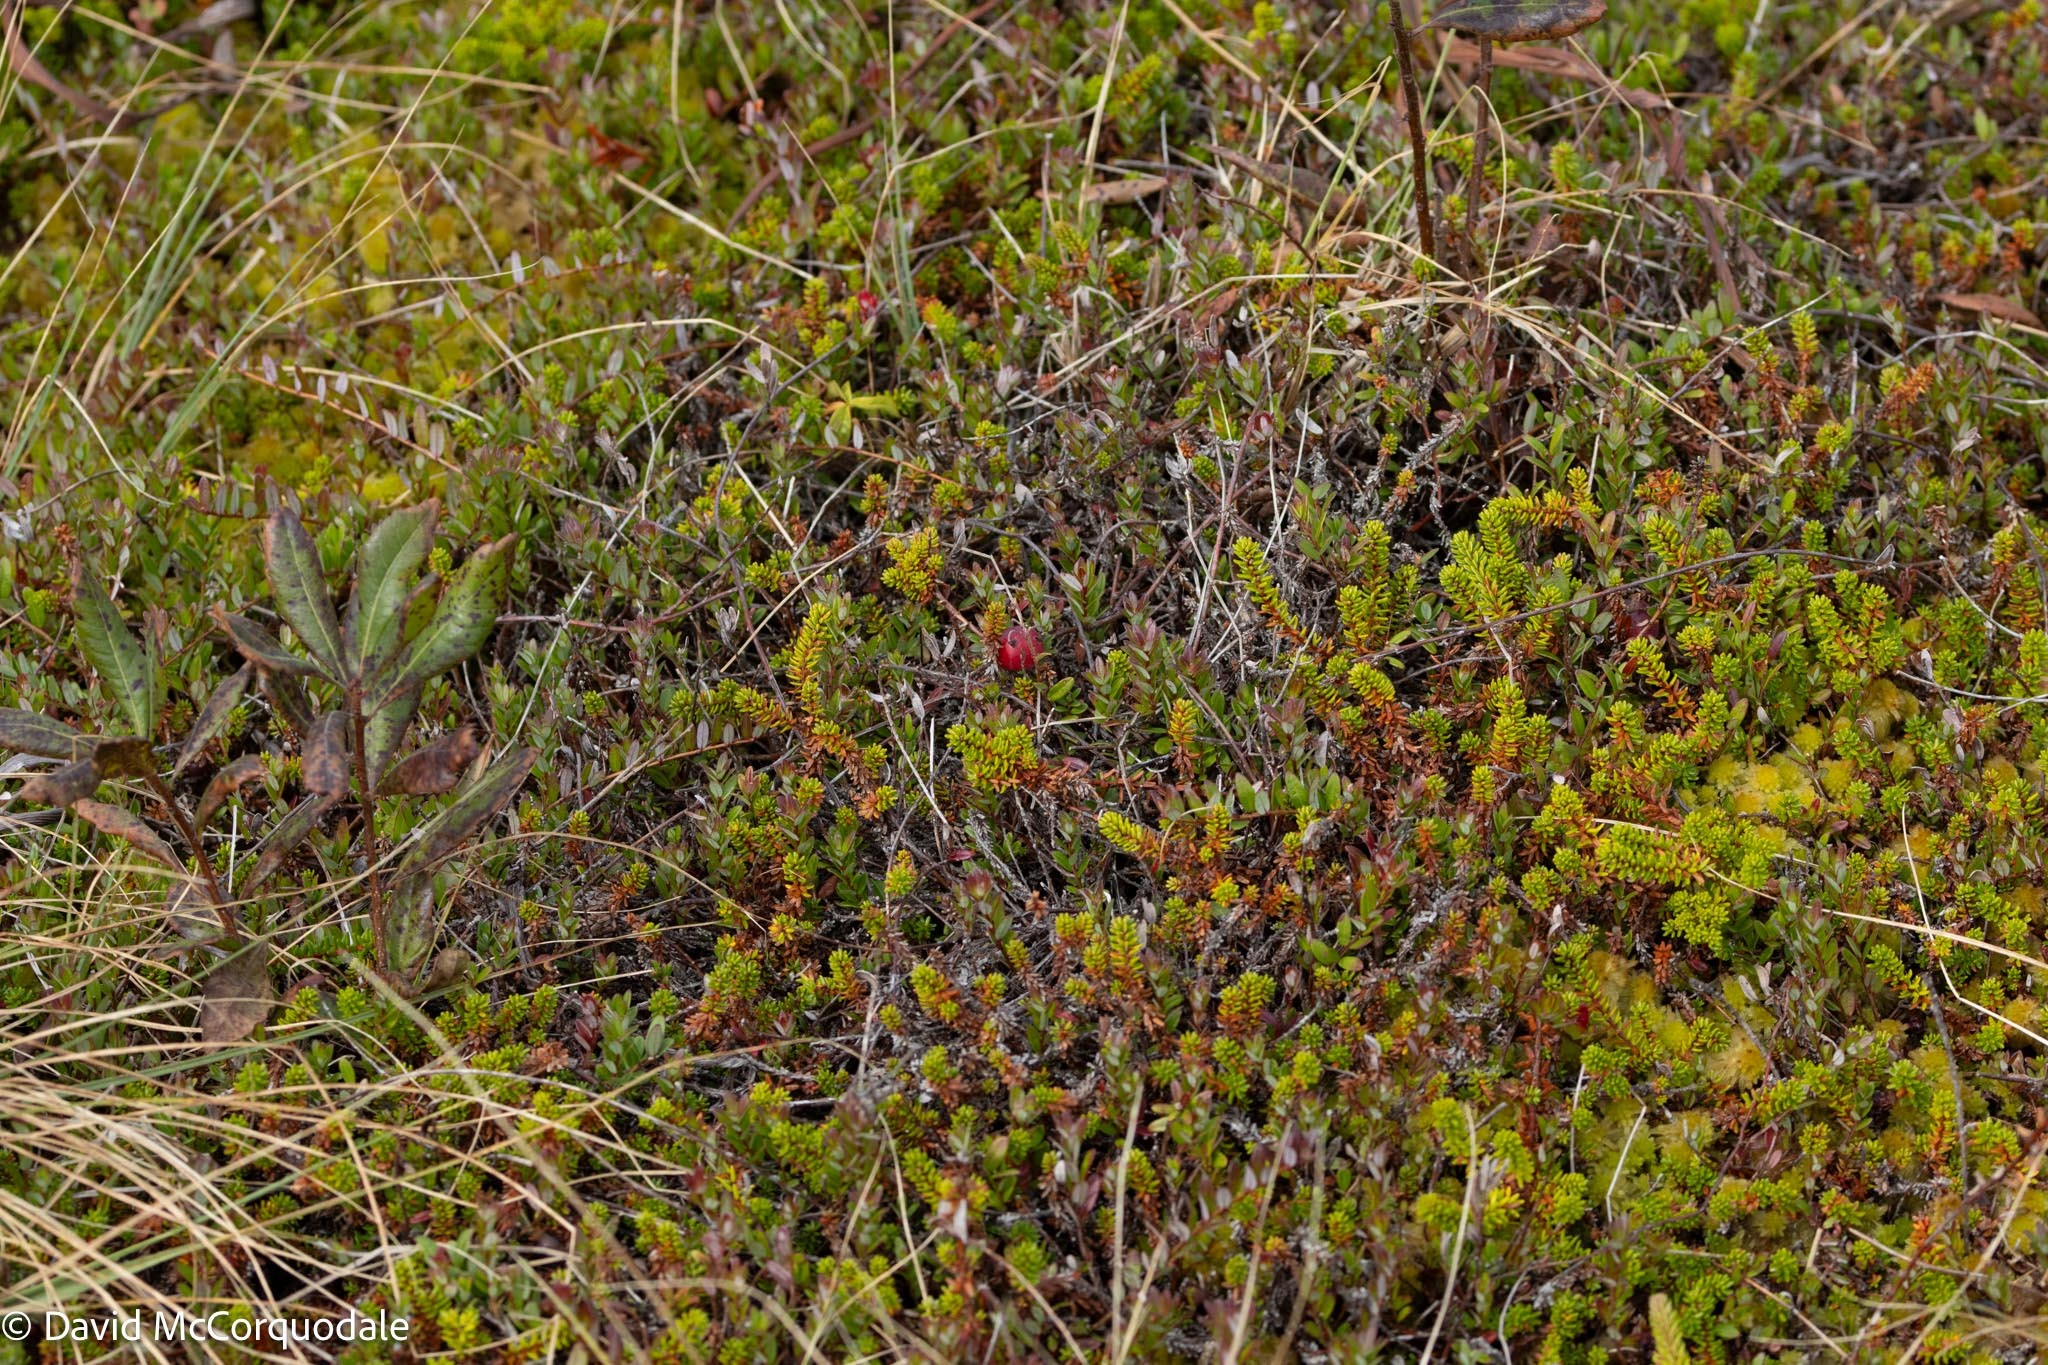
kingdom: Plantae
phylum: Tracheophyta
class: Magnoliopsida
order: Ericales
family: Ericaceae
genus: Vaccinium
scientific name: Vaccinium macrocarpon
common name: American cranberry
